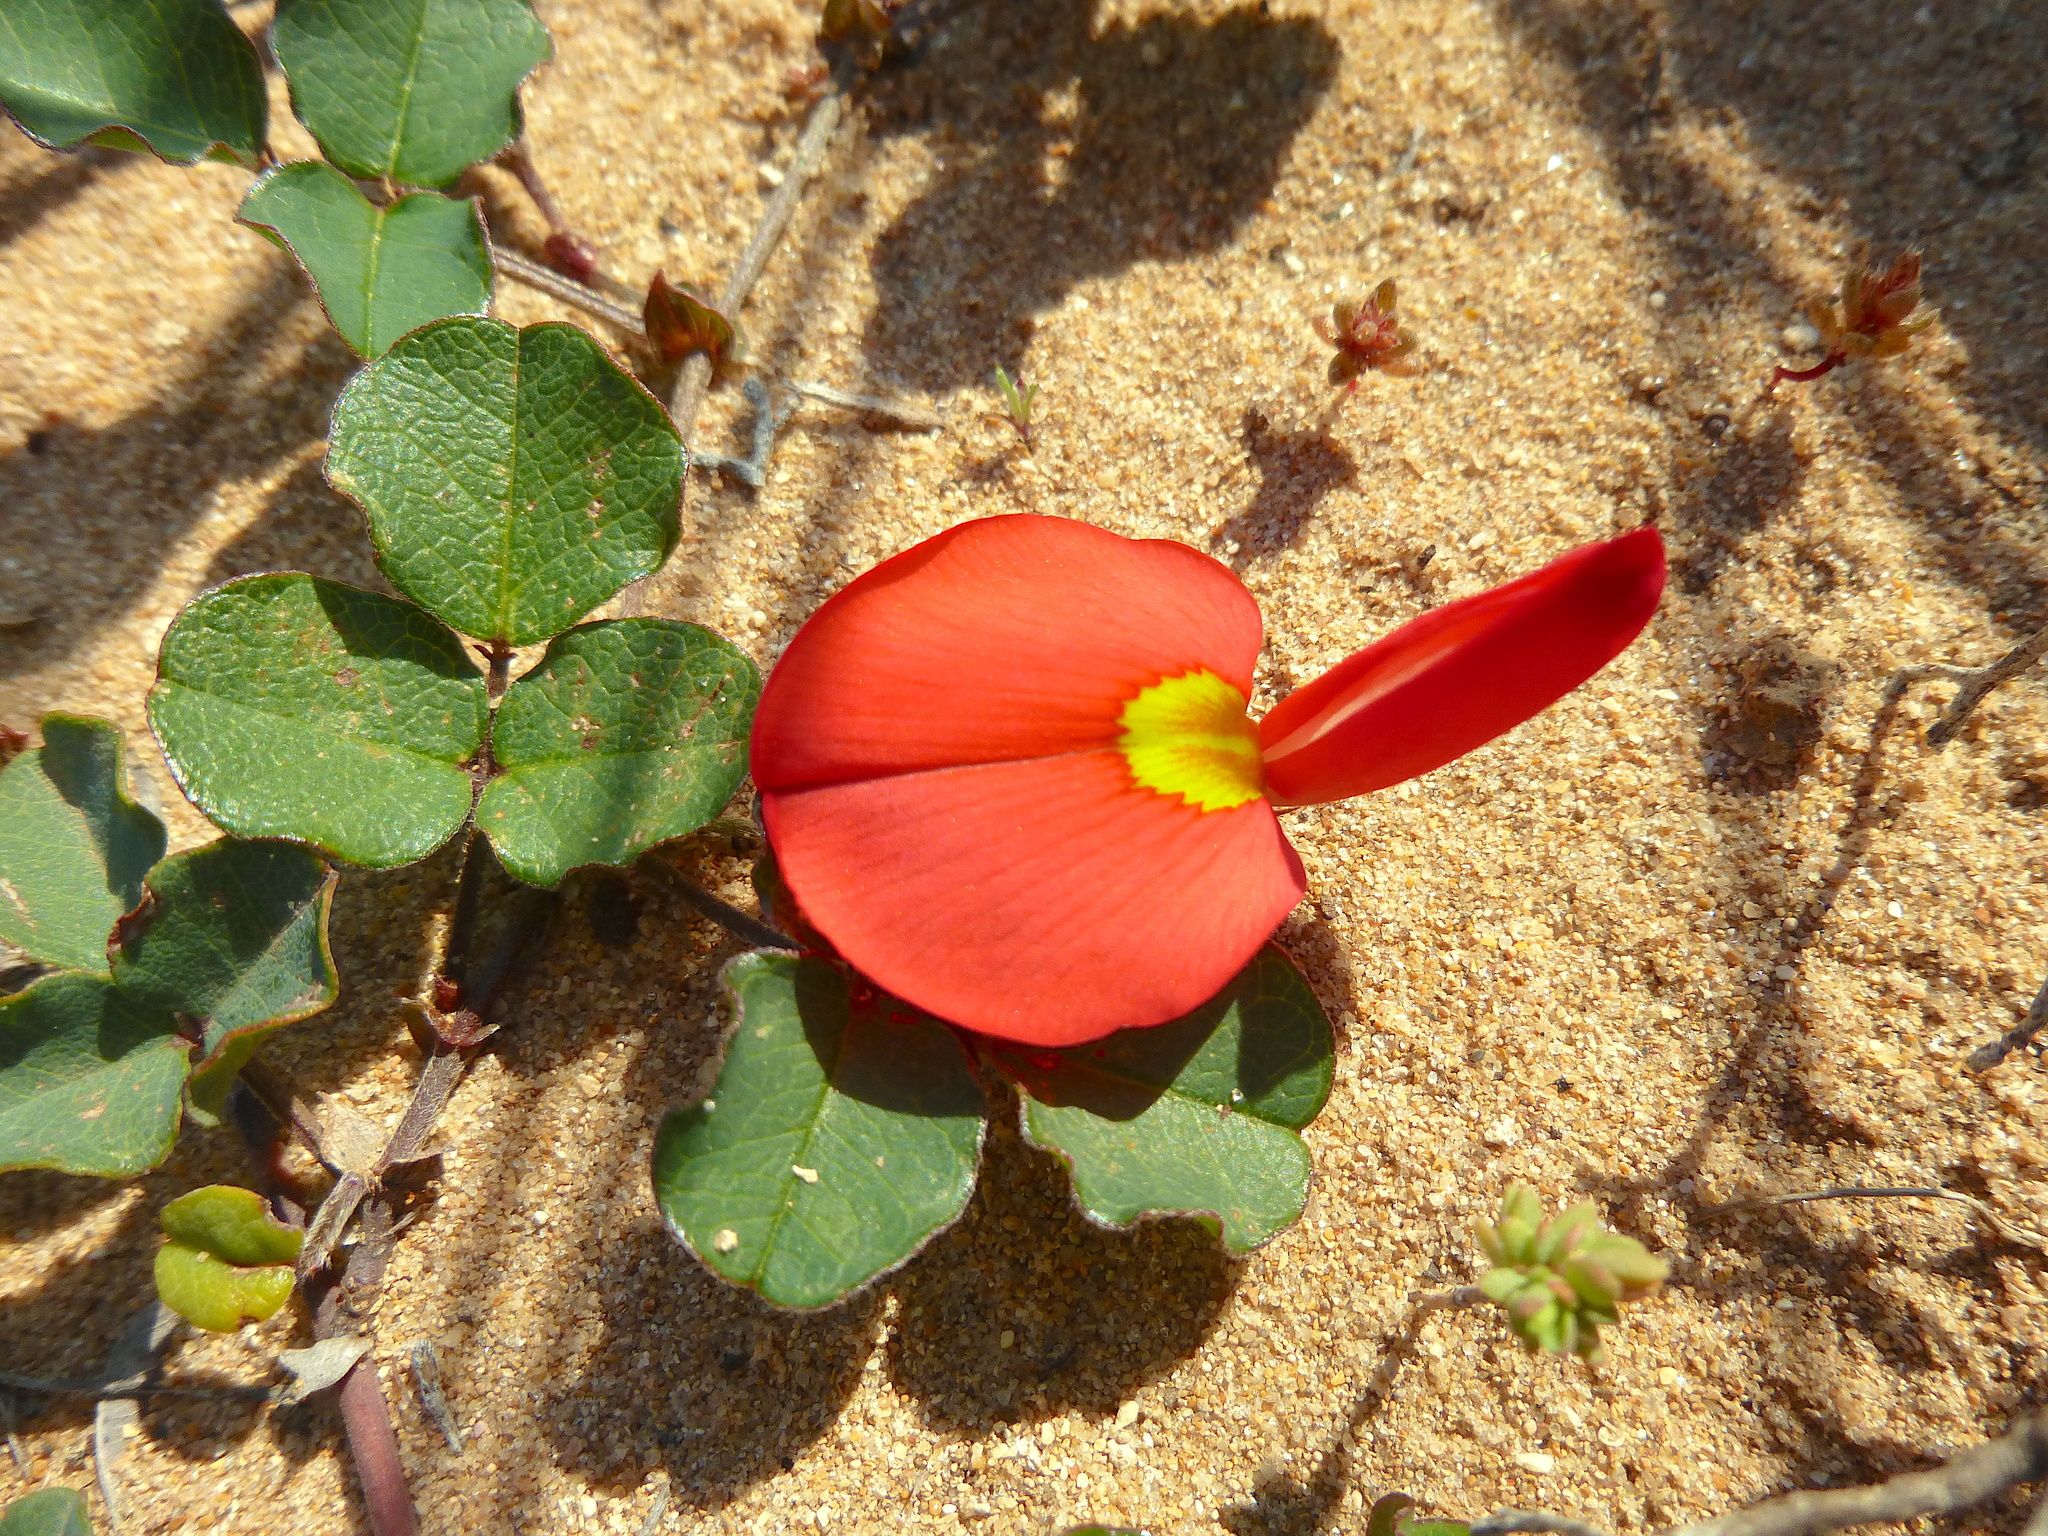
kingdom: Plantae
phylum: Tracheophyta
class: Magnoliopsida
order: Fabales
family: Fabaceae
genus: Kennedia
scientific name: Kennedia prostrata
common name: Running-postman
